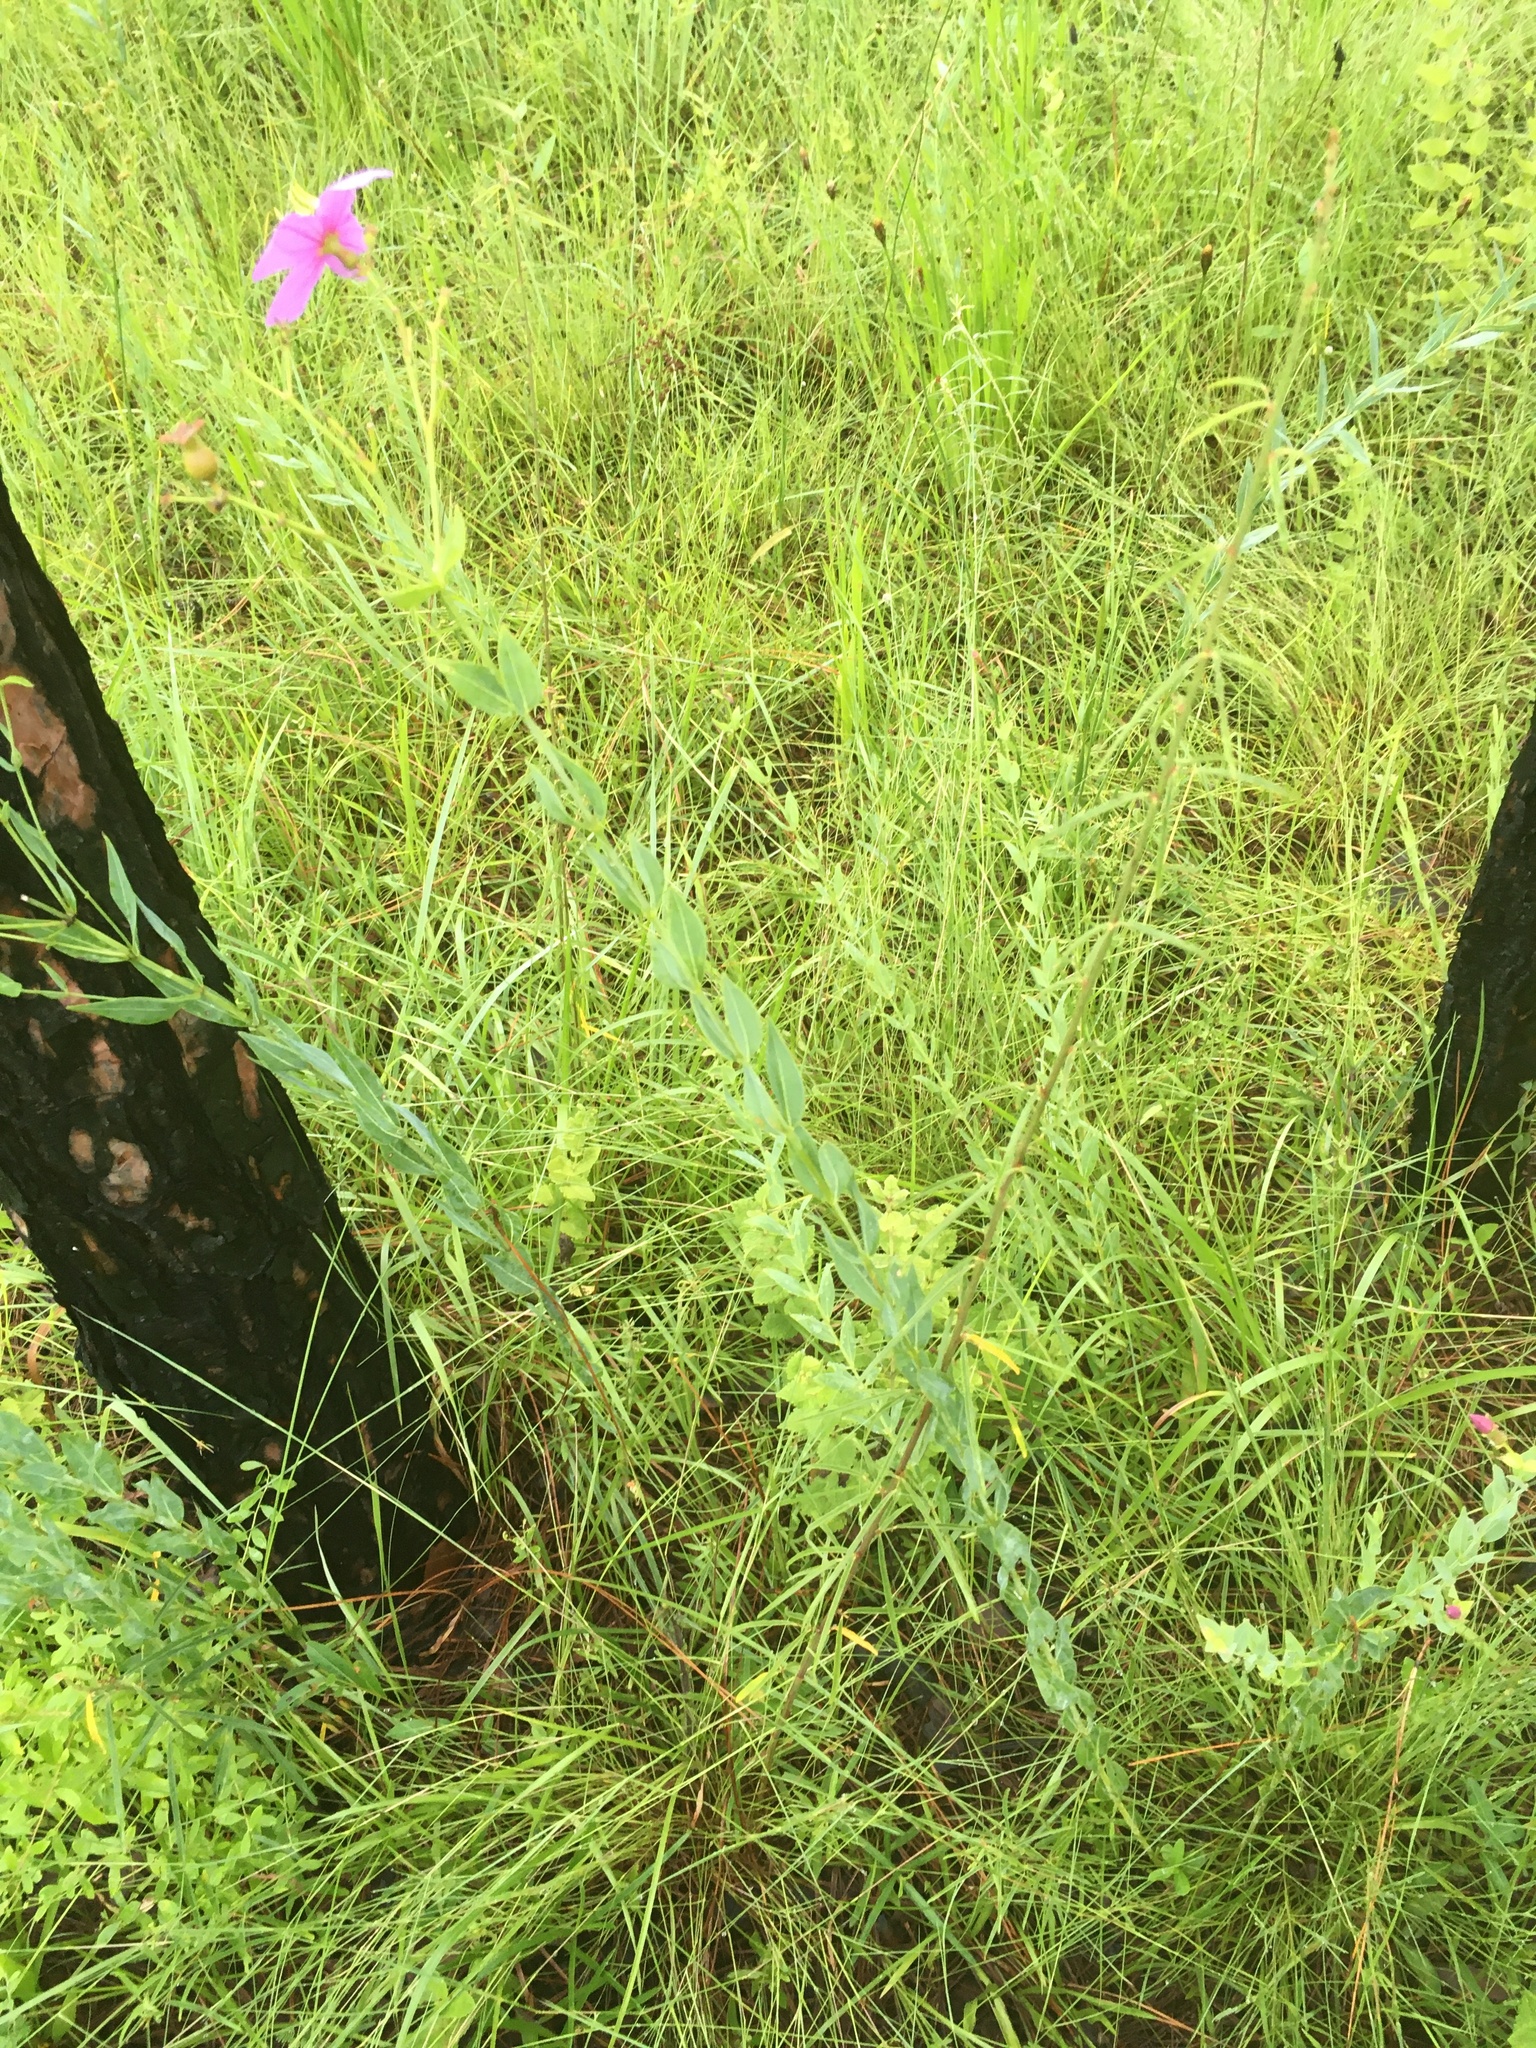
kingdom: Plantae
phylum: Tracheophyta
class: Magnoliopsida
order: Myrtales
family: Melastomataceae
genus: Rhexia
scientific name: Rhexia alifanus
